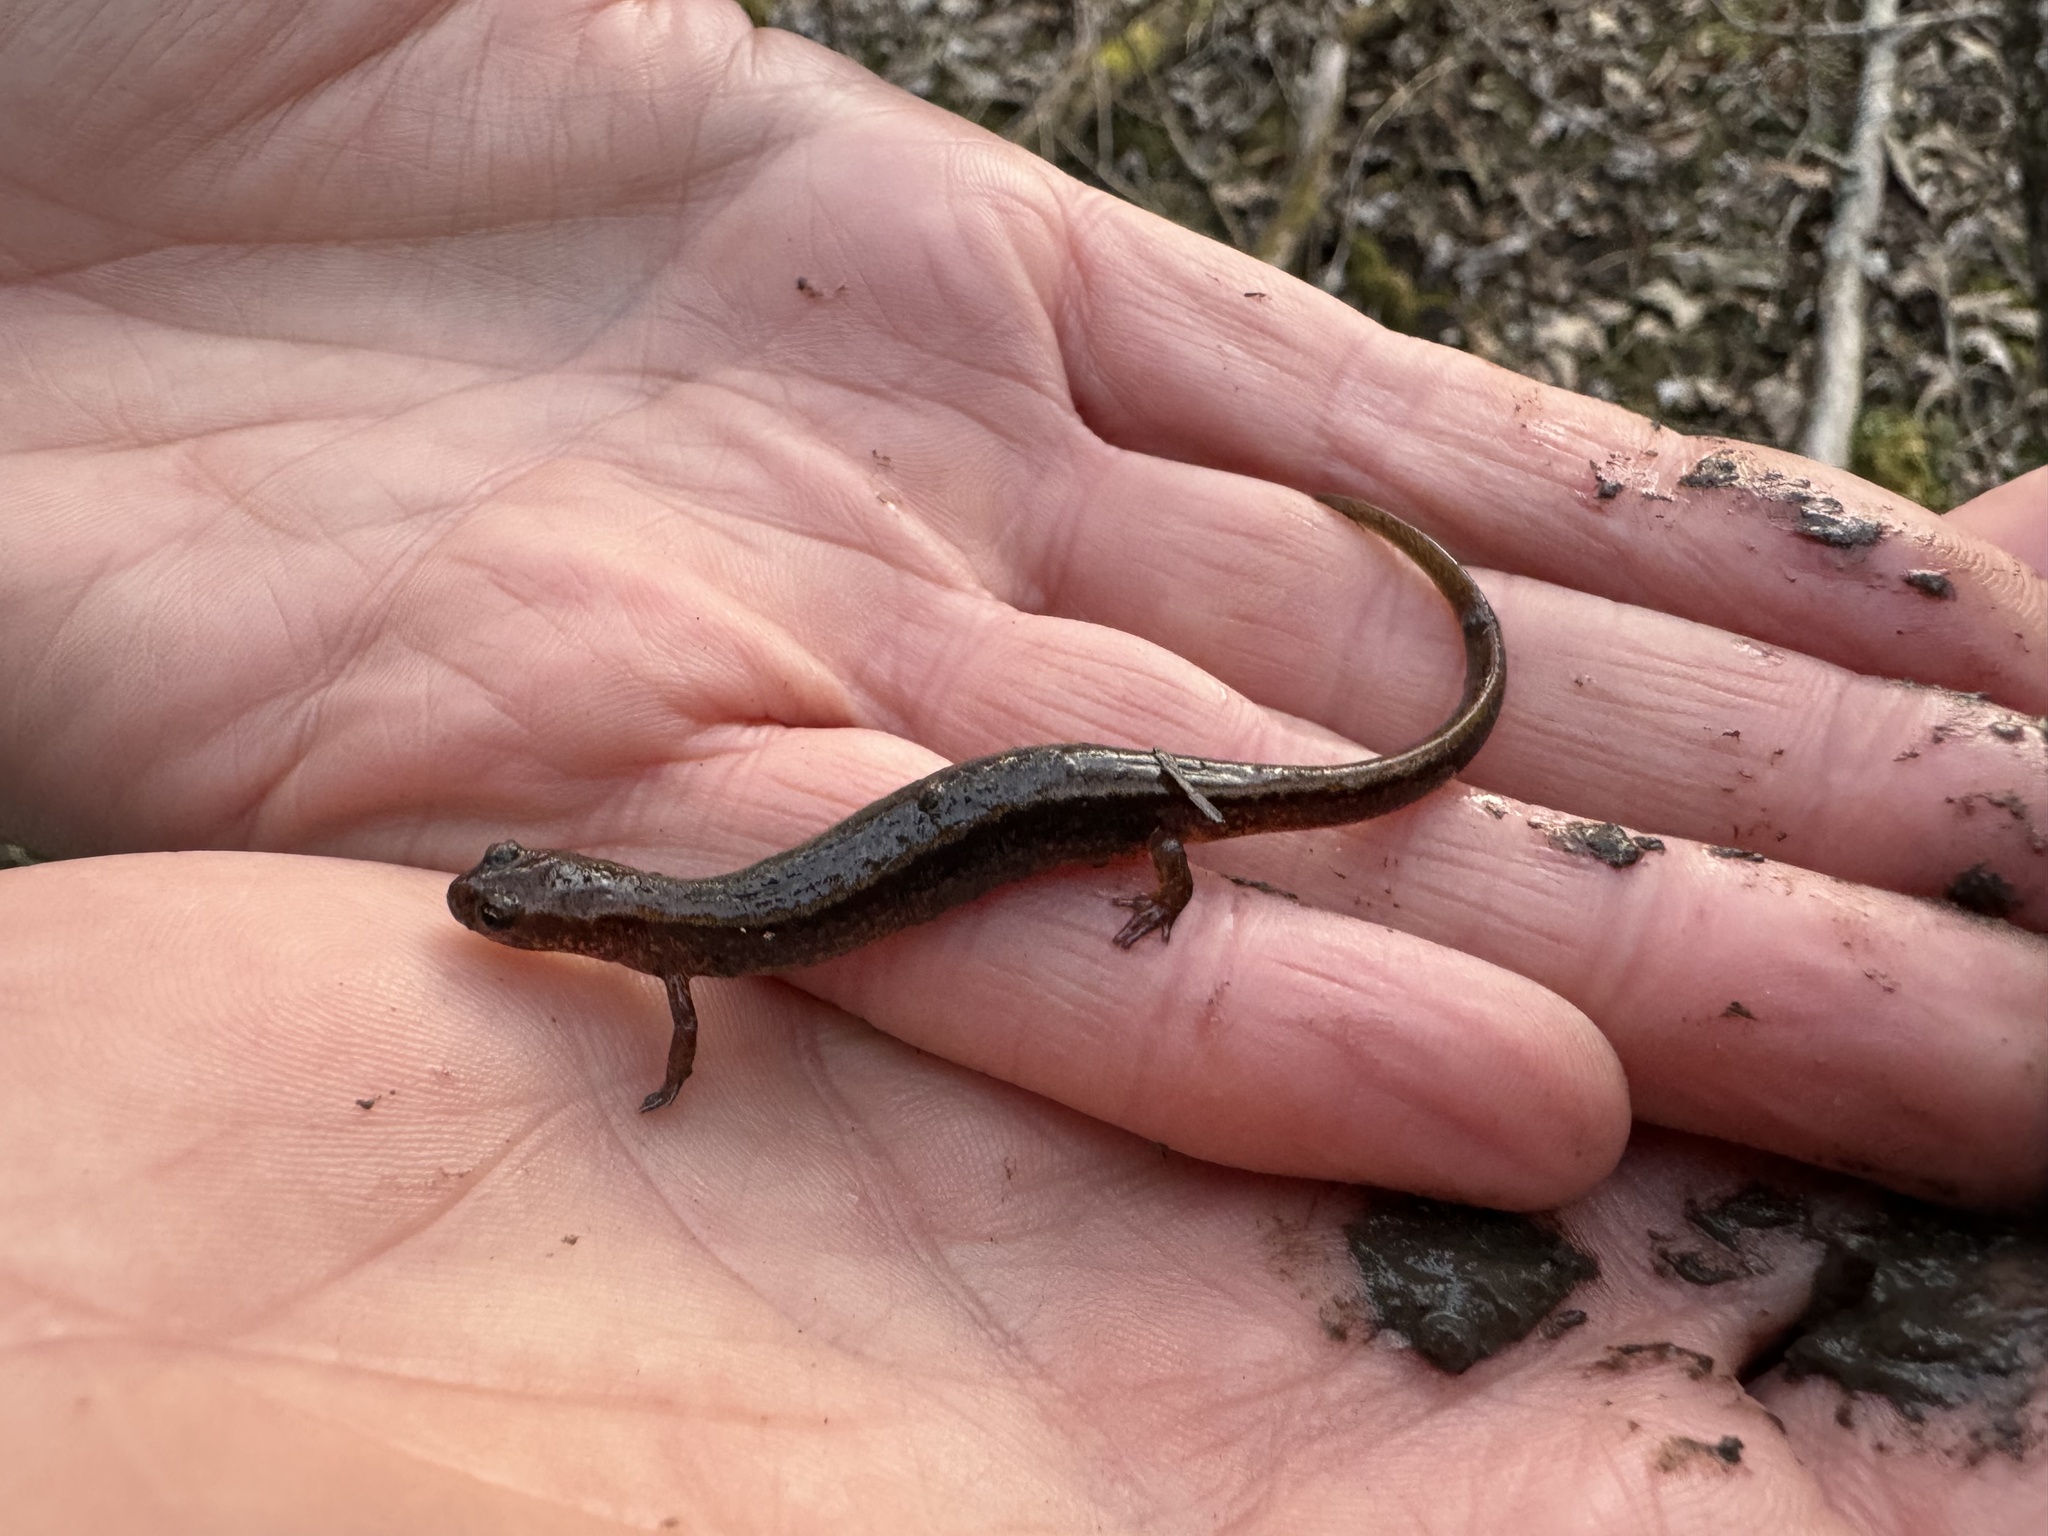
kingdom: Animalia
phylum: Chordata
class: Amphibia
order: Caudata
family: Plethodontidae
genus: Eurycea
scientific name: Eurycea bislineata
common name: Northern two-lined salamander
